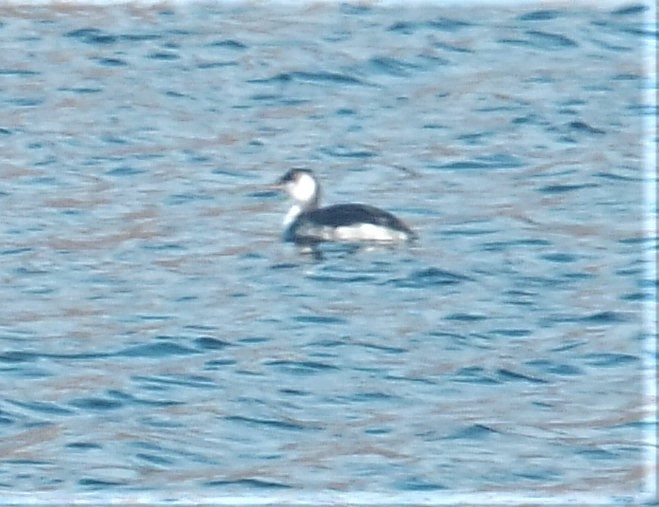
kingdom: Animalia
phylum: Chordata
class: Aves
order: Podicipediformes
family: Podicipedidae
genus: Podiceps
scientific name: Podiceps auritus
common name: Horned grebe
